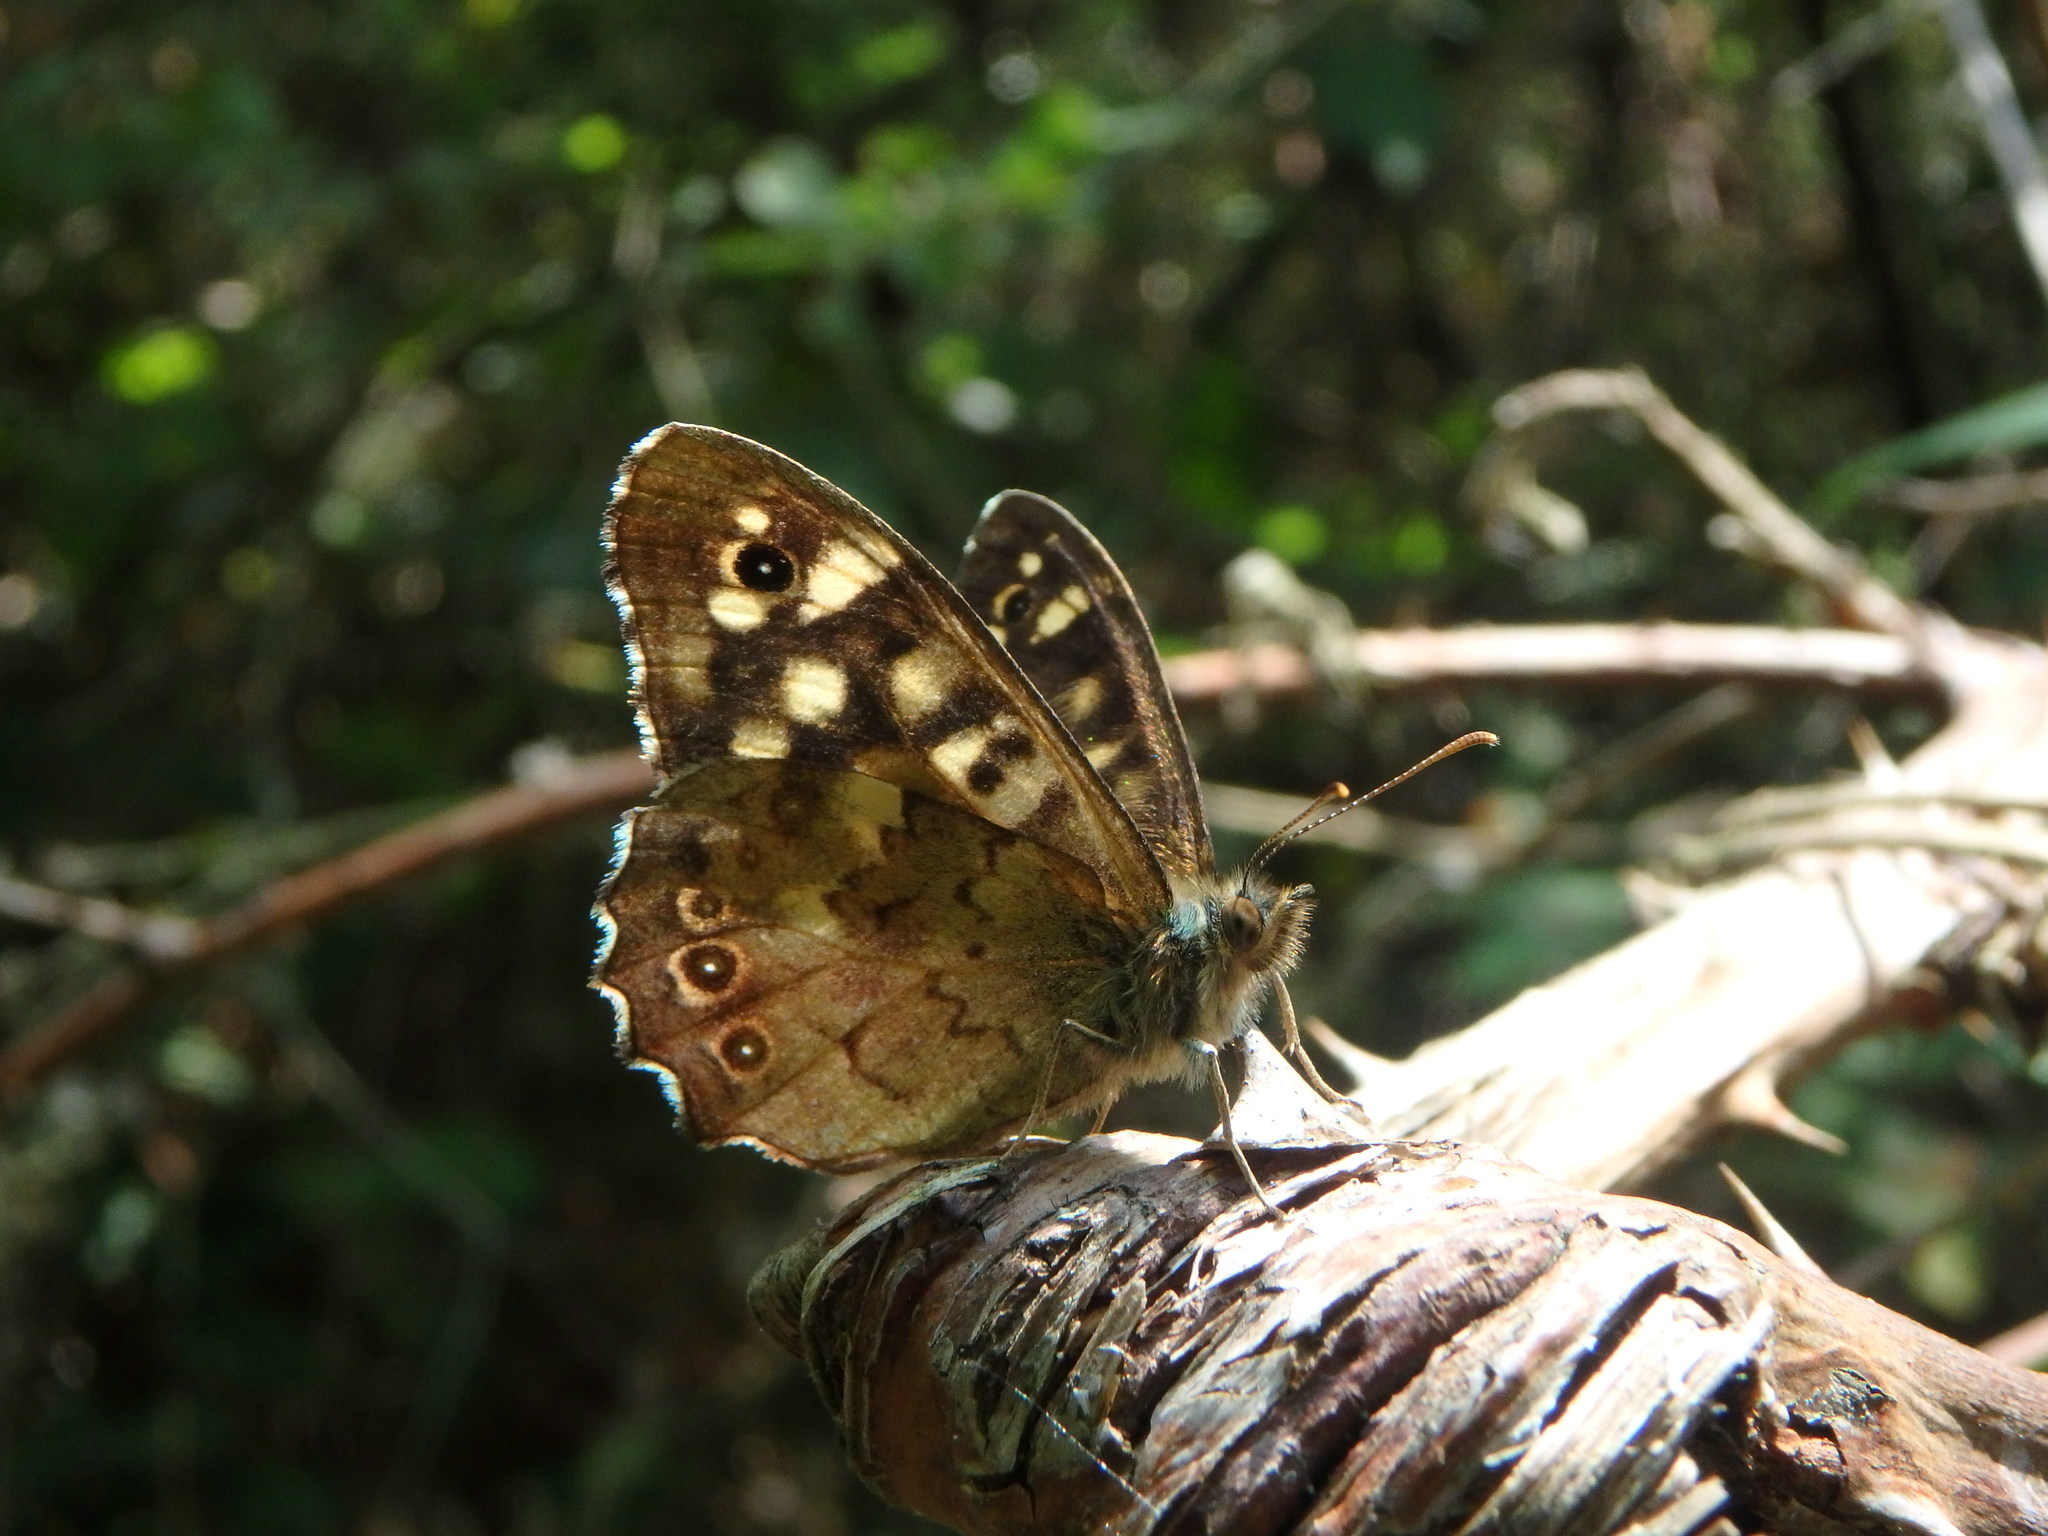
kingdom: Animalia
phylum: Arthropoda
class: Insecta
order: Lepidoptera
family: Nymphalidae
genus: Pararge
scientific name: Pararge aegeria
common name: Speckled wood
